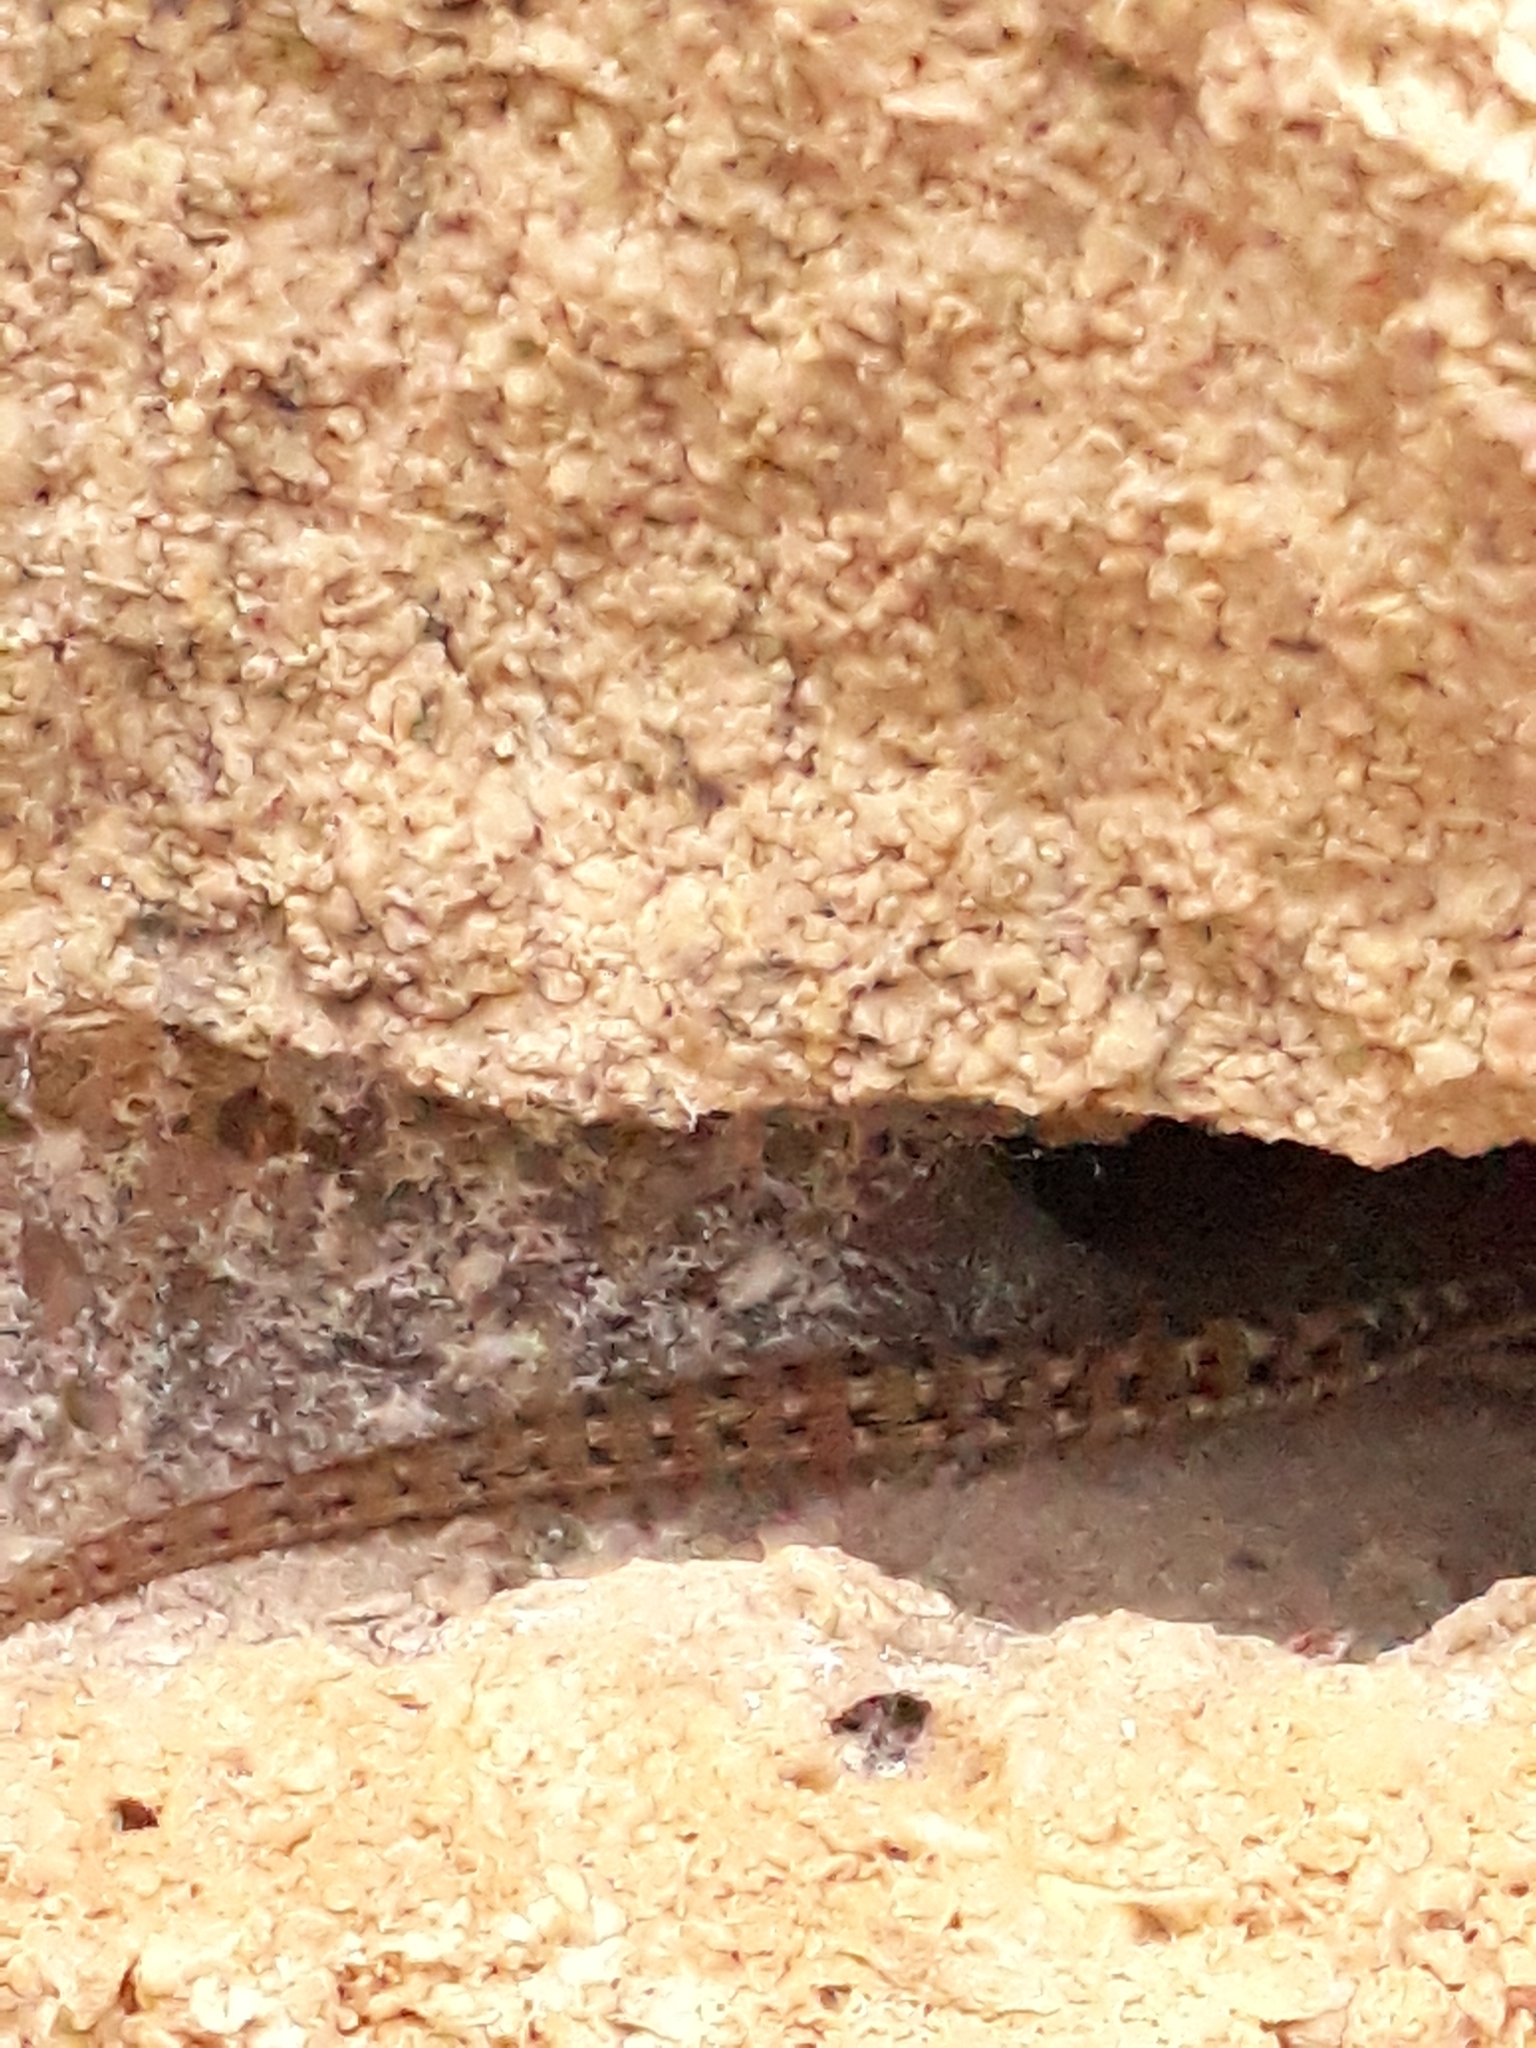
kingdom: Animalia
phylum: Chordata
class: Squamata
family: Lacertidae
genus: Podarcis
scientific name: Podarcis muralis
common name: Common wall lizard
